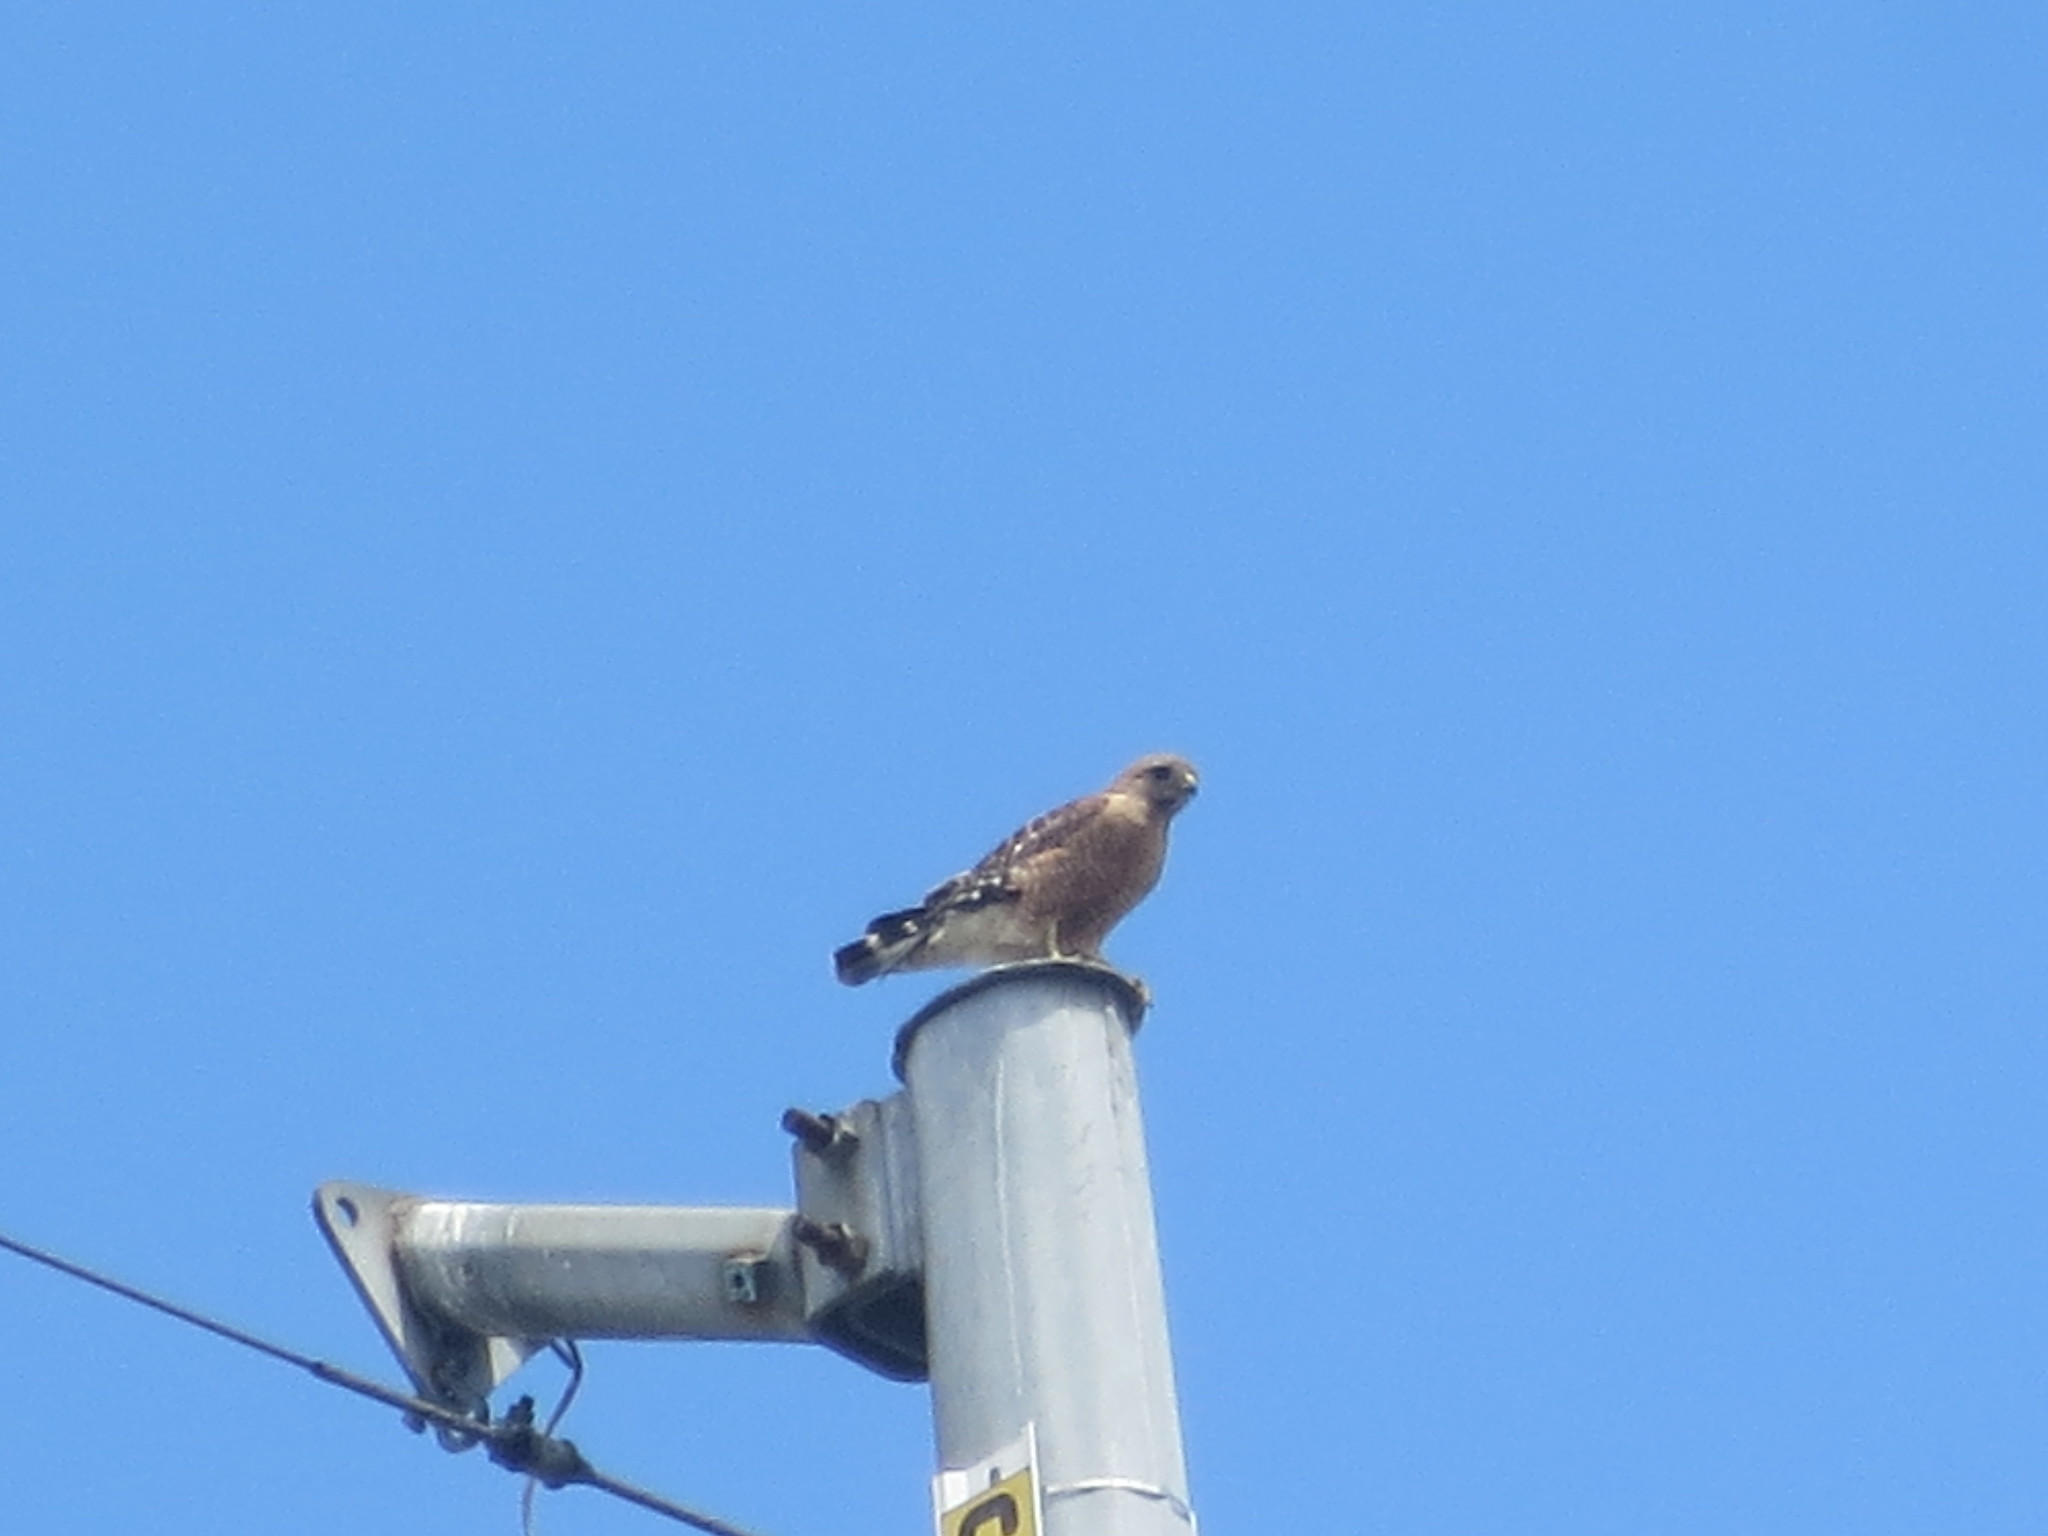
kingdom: Animalia
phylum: Chordata
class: Aves
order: Accipitriformes
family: Accipitridae
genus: Buteo
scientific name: Buteo lineatus
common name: Red-shouldered hawk
